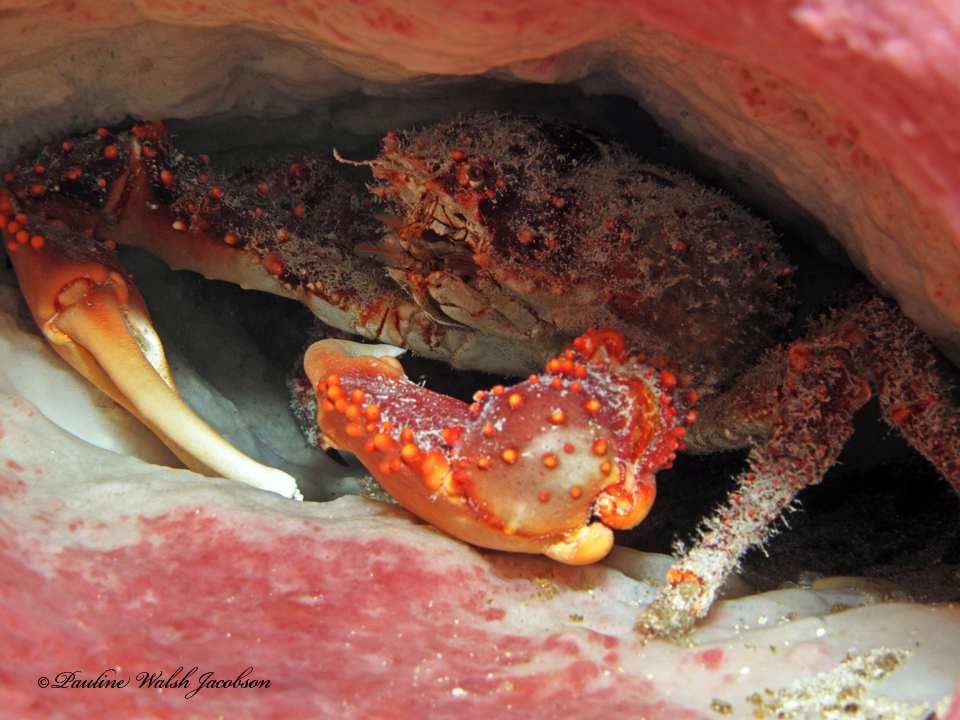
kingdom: Animalia
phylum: Arthropoda
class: Malacostraca
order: Decapoda
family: Mithracidae
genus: Maguimithrax
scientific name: Maguimithrax spinosissimus
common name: Spiny spider crab
